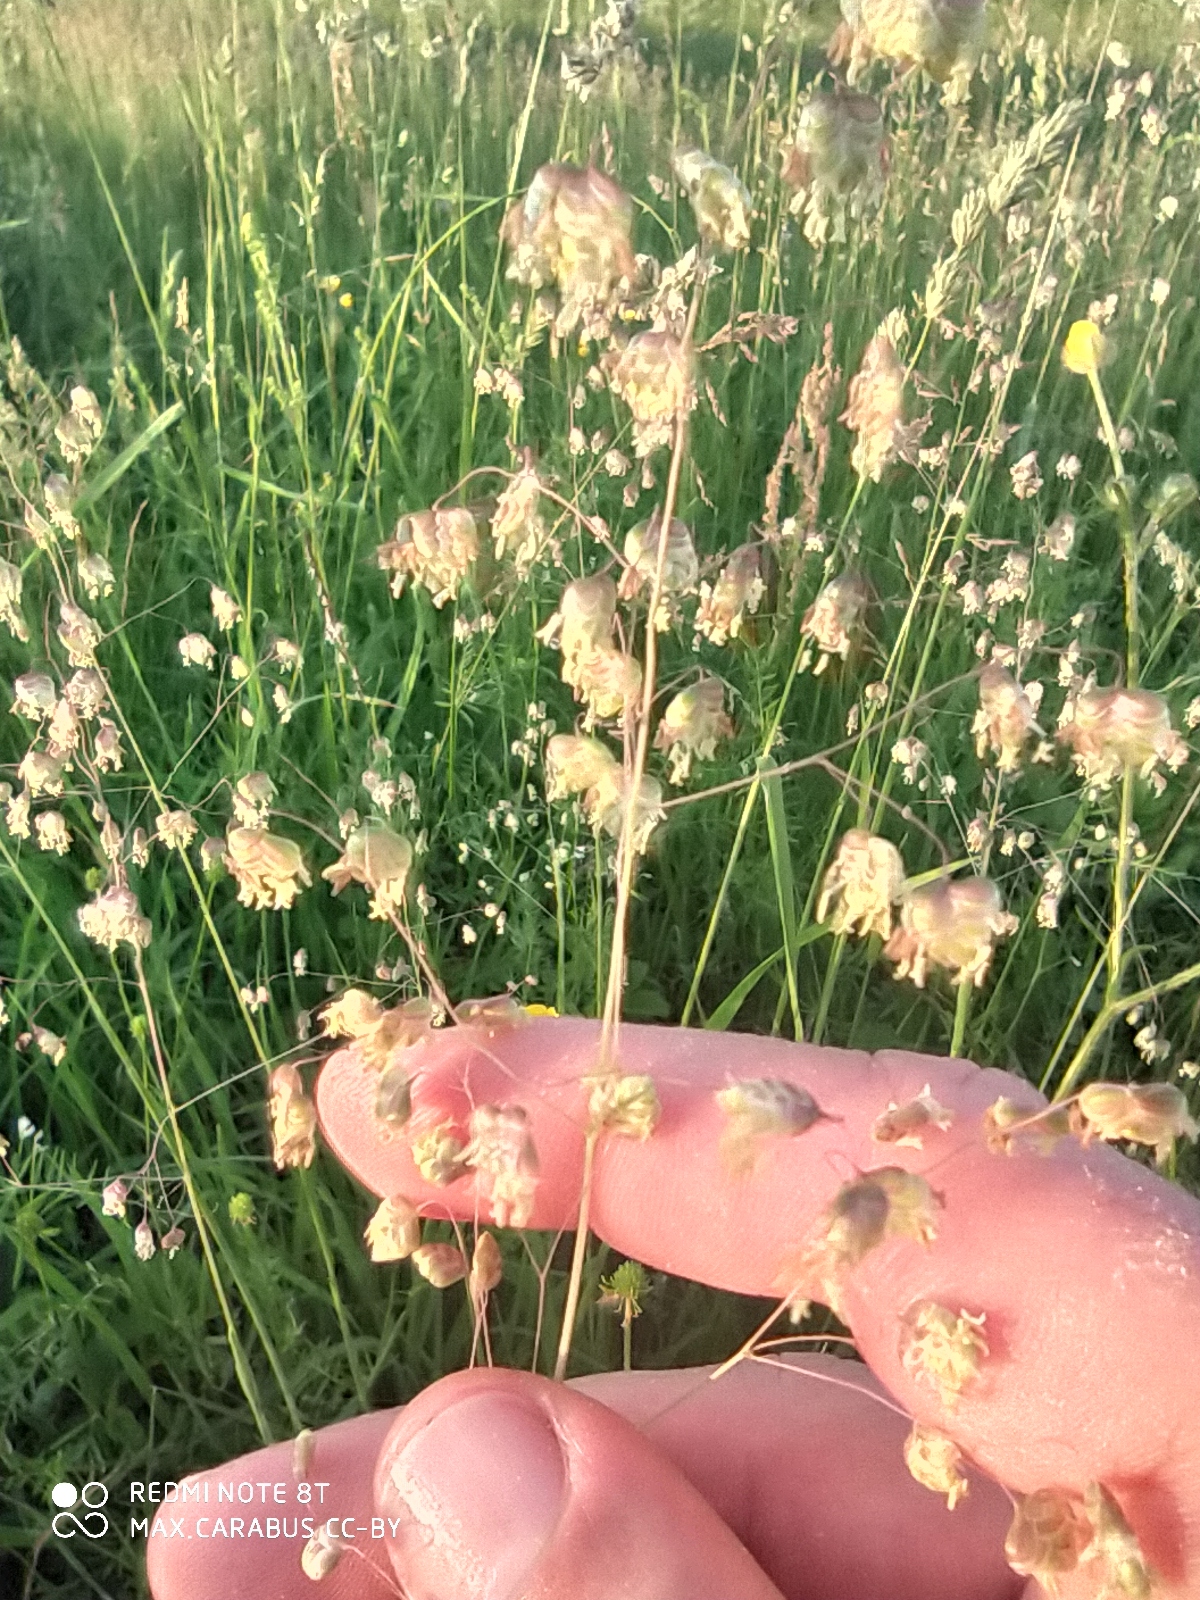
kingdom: Plantae
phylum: Tracheophyta
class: Liliopsida
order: Poales
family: Poaceae
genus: Briza
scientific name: Briza media
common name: Quaking grass
